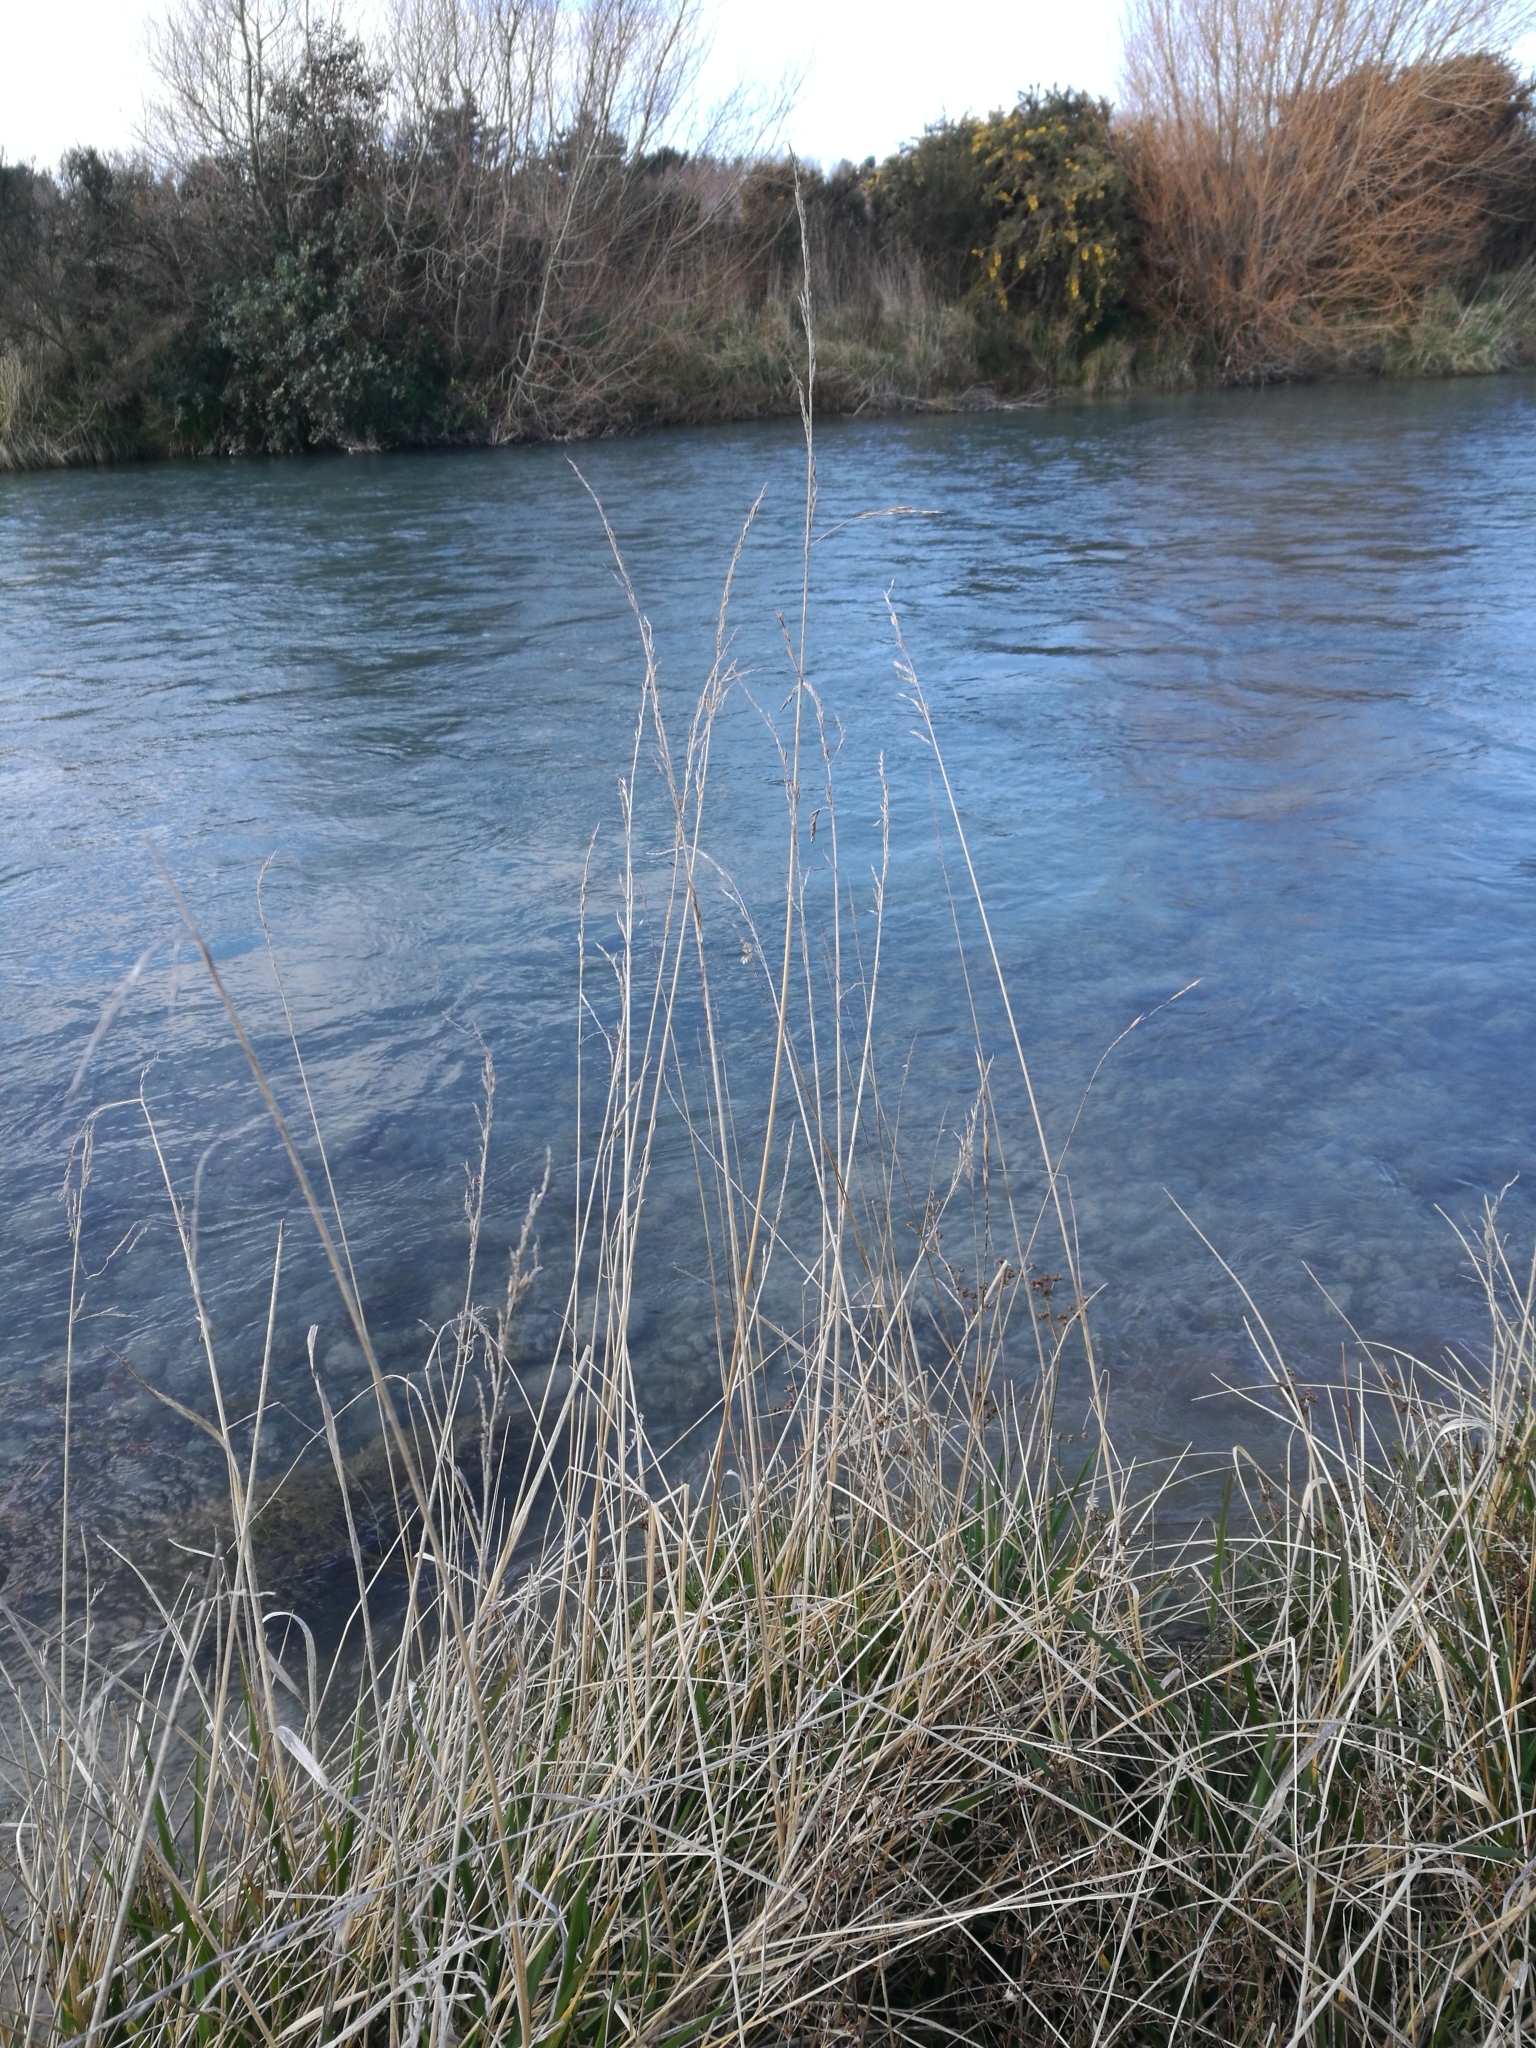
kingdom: Plantae
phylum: Tracheophyta
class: Liliopsida
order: Poales
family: Poaceae
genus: Lolium
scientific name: Lolium arundinaceum
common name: Reed fescue
